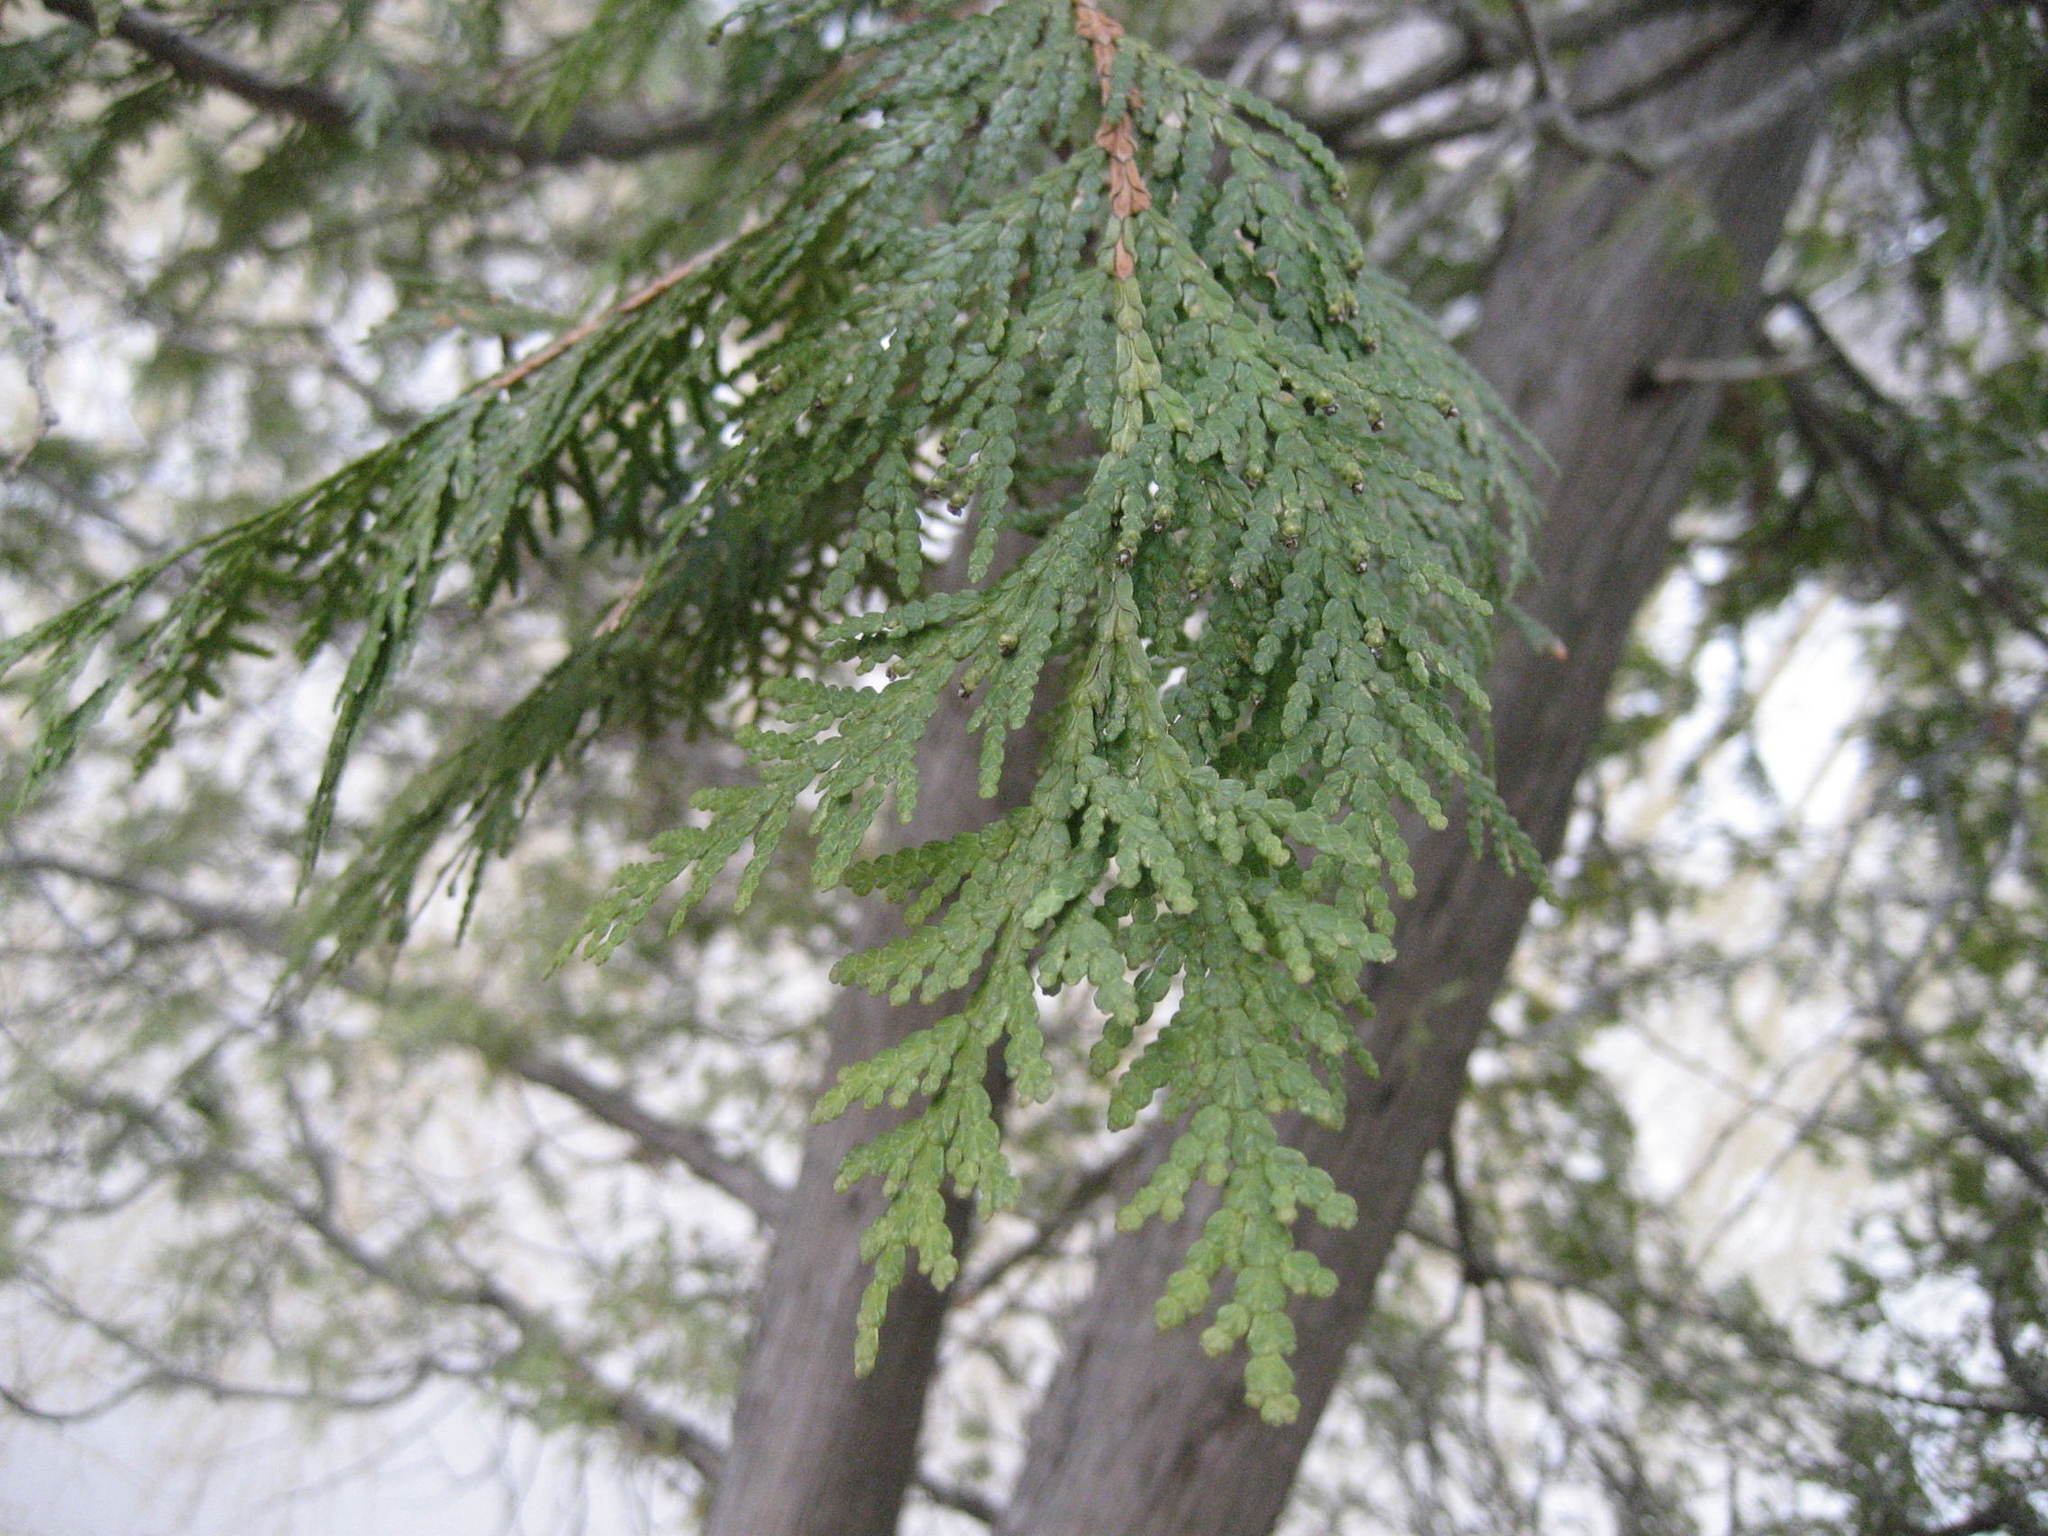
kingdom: Plantae
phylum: Tracheophyta
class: Pinopsida
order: Pinales
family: Cupressaceae
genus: Thuja
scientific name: Thuja occidentalis
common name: Northern white-cedar
